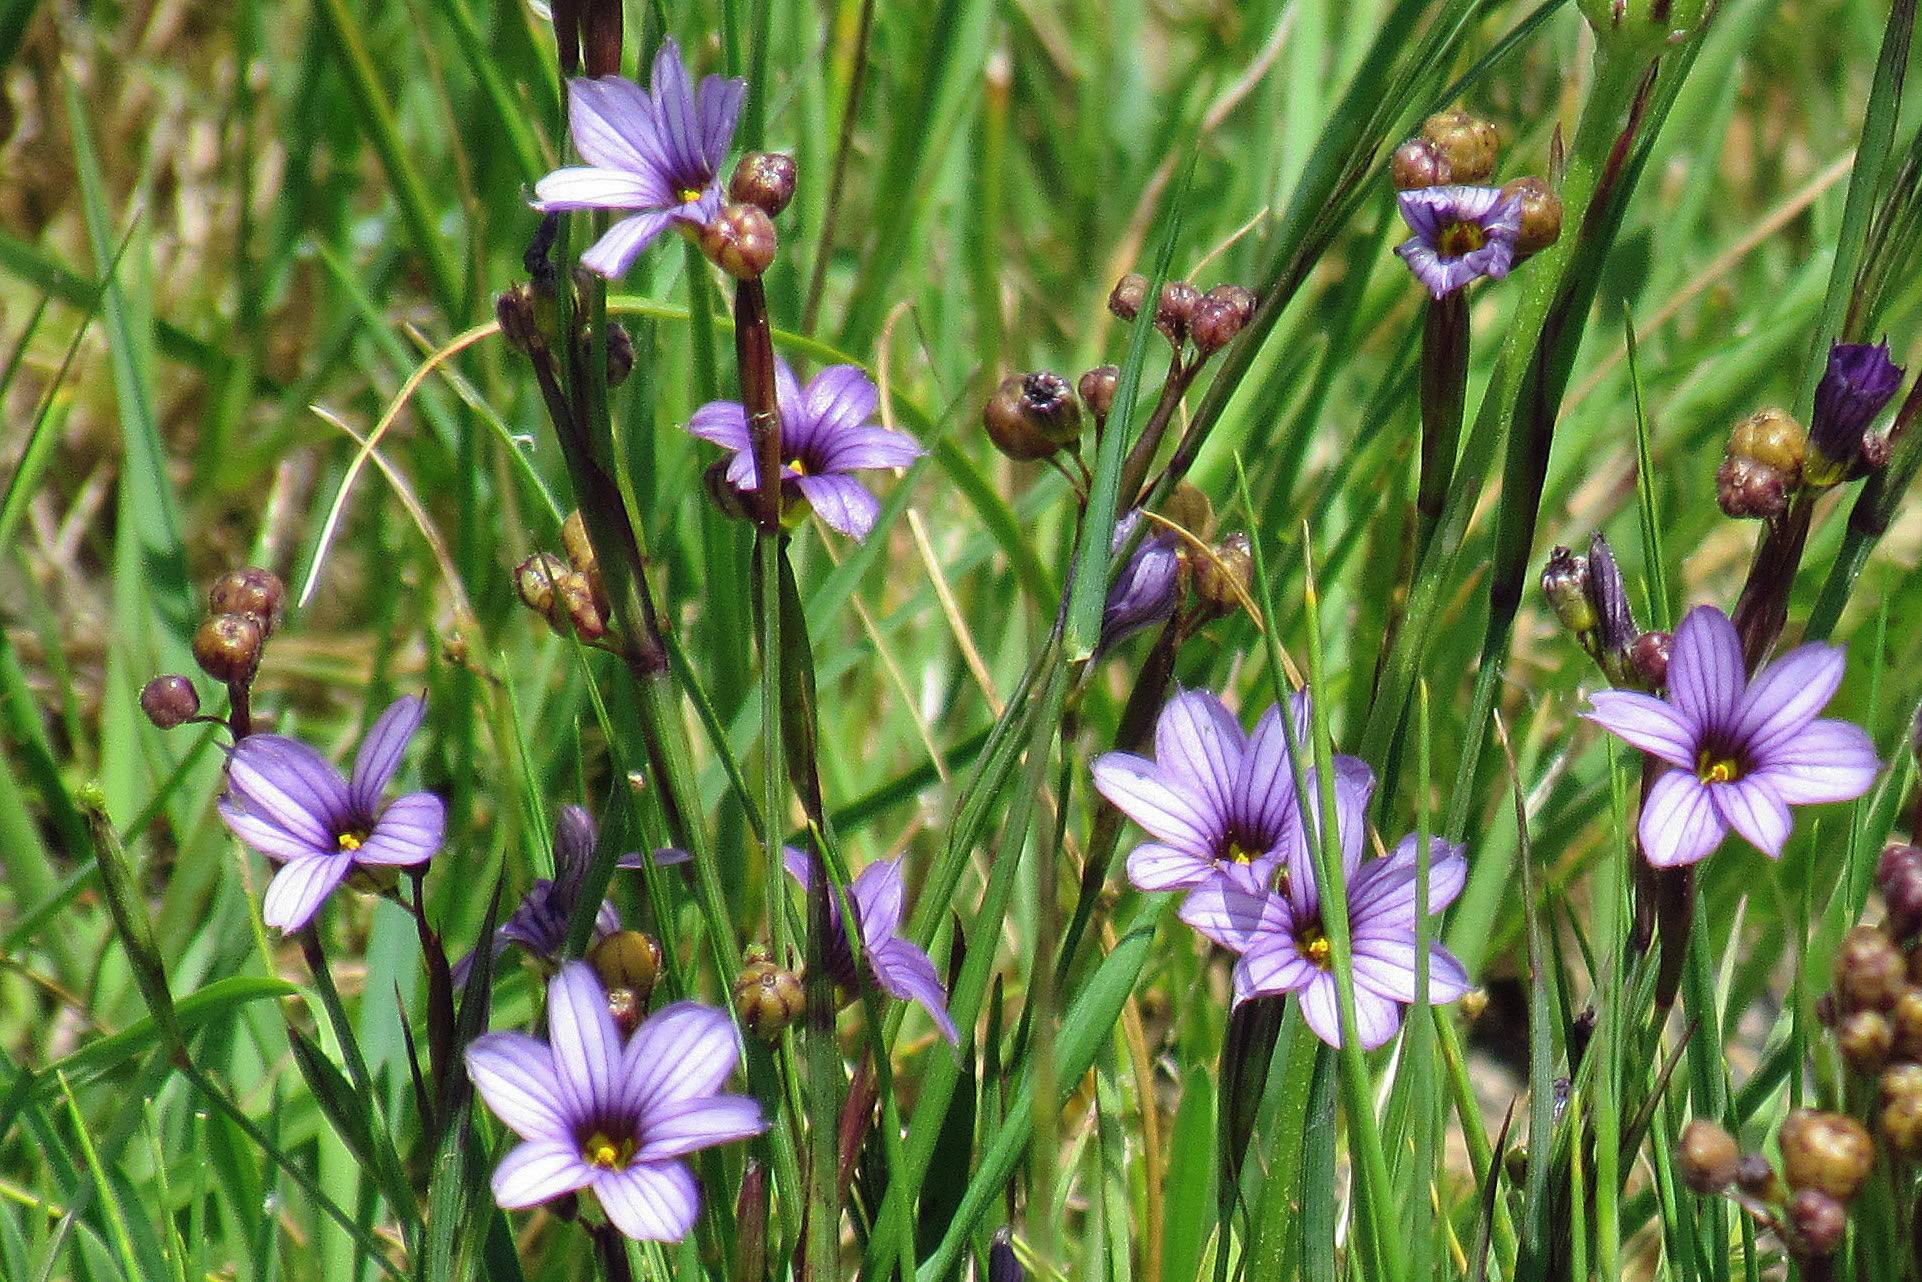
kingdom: Plantae
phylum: Tracheophyta
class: Liliopsida
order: Asparagales
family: Iridaceae
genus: Sisyrinchium
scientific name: Sisyrinchium platense
